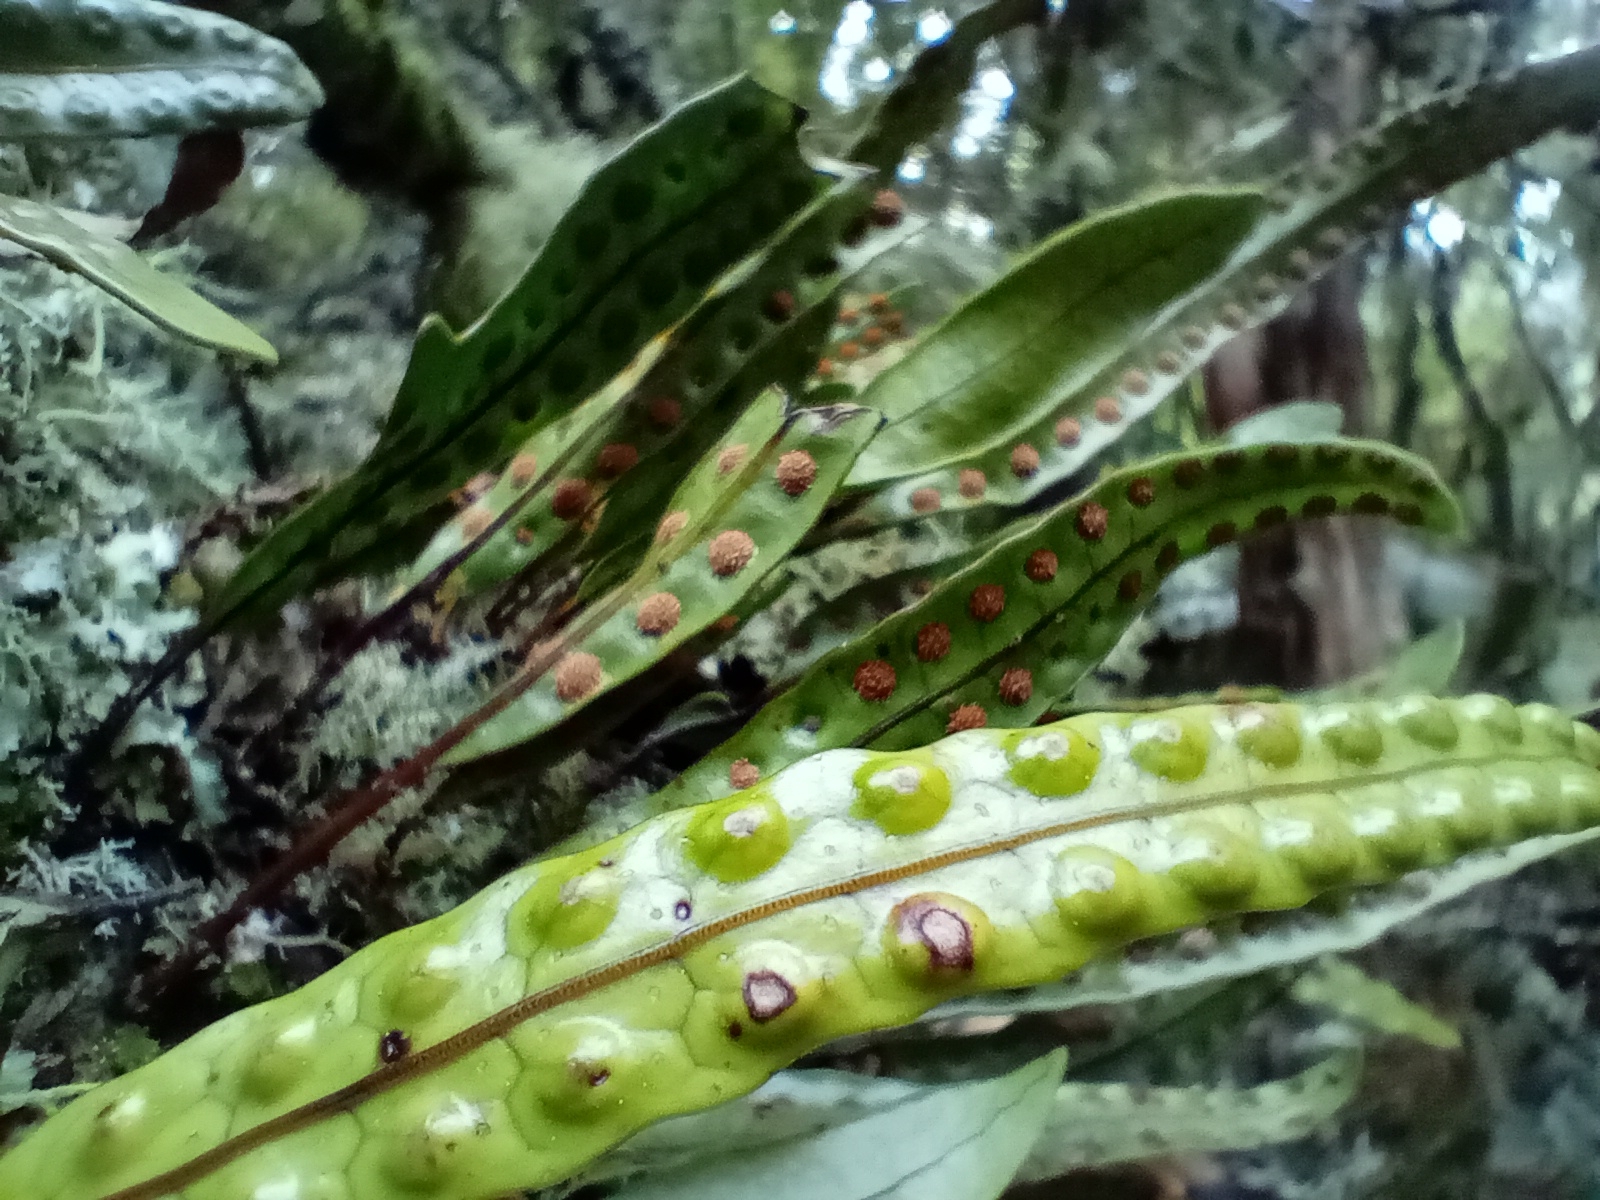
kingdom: Plantae
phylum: Tracheophyta
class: Polypodiopsida
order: Polypodiales
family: Polypodiaceae
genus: Lecanopteris
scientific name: Lecanopteris pustulata
